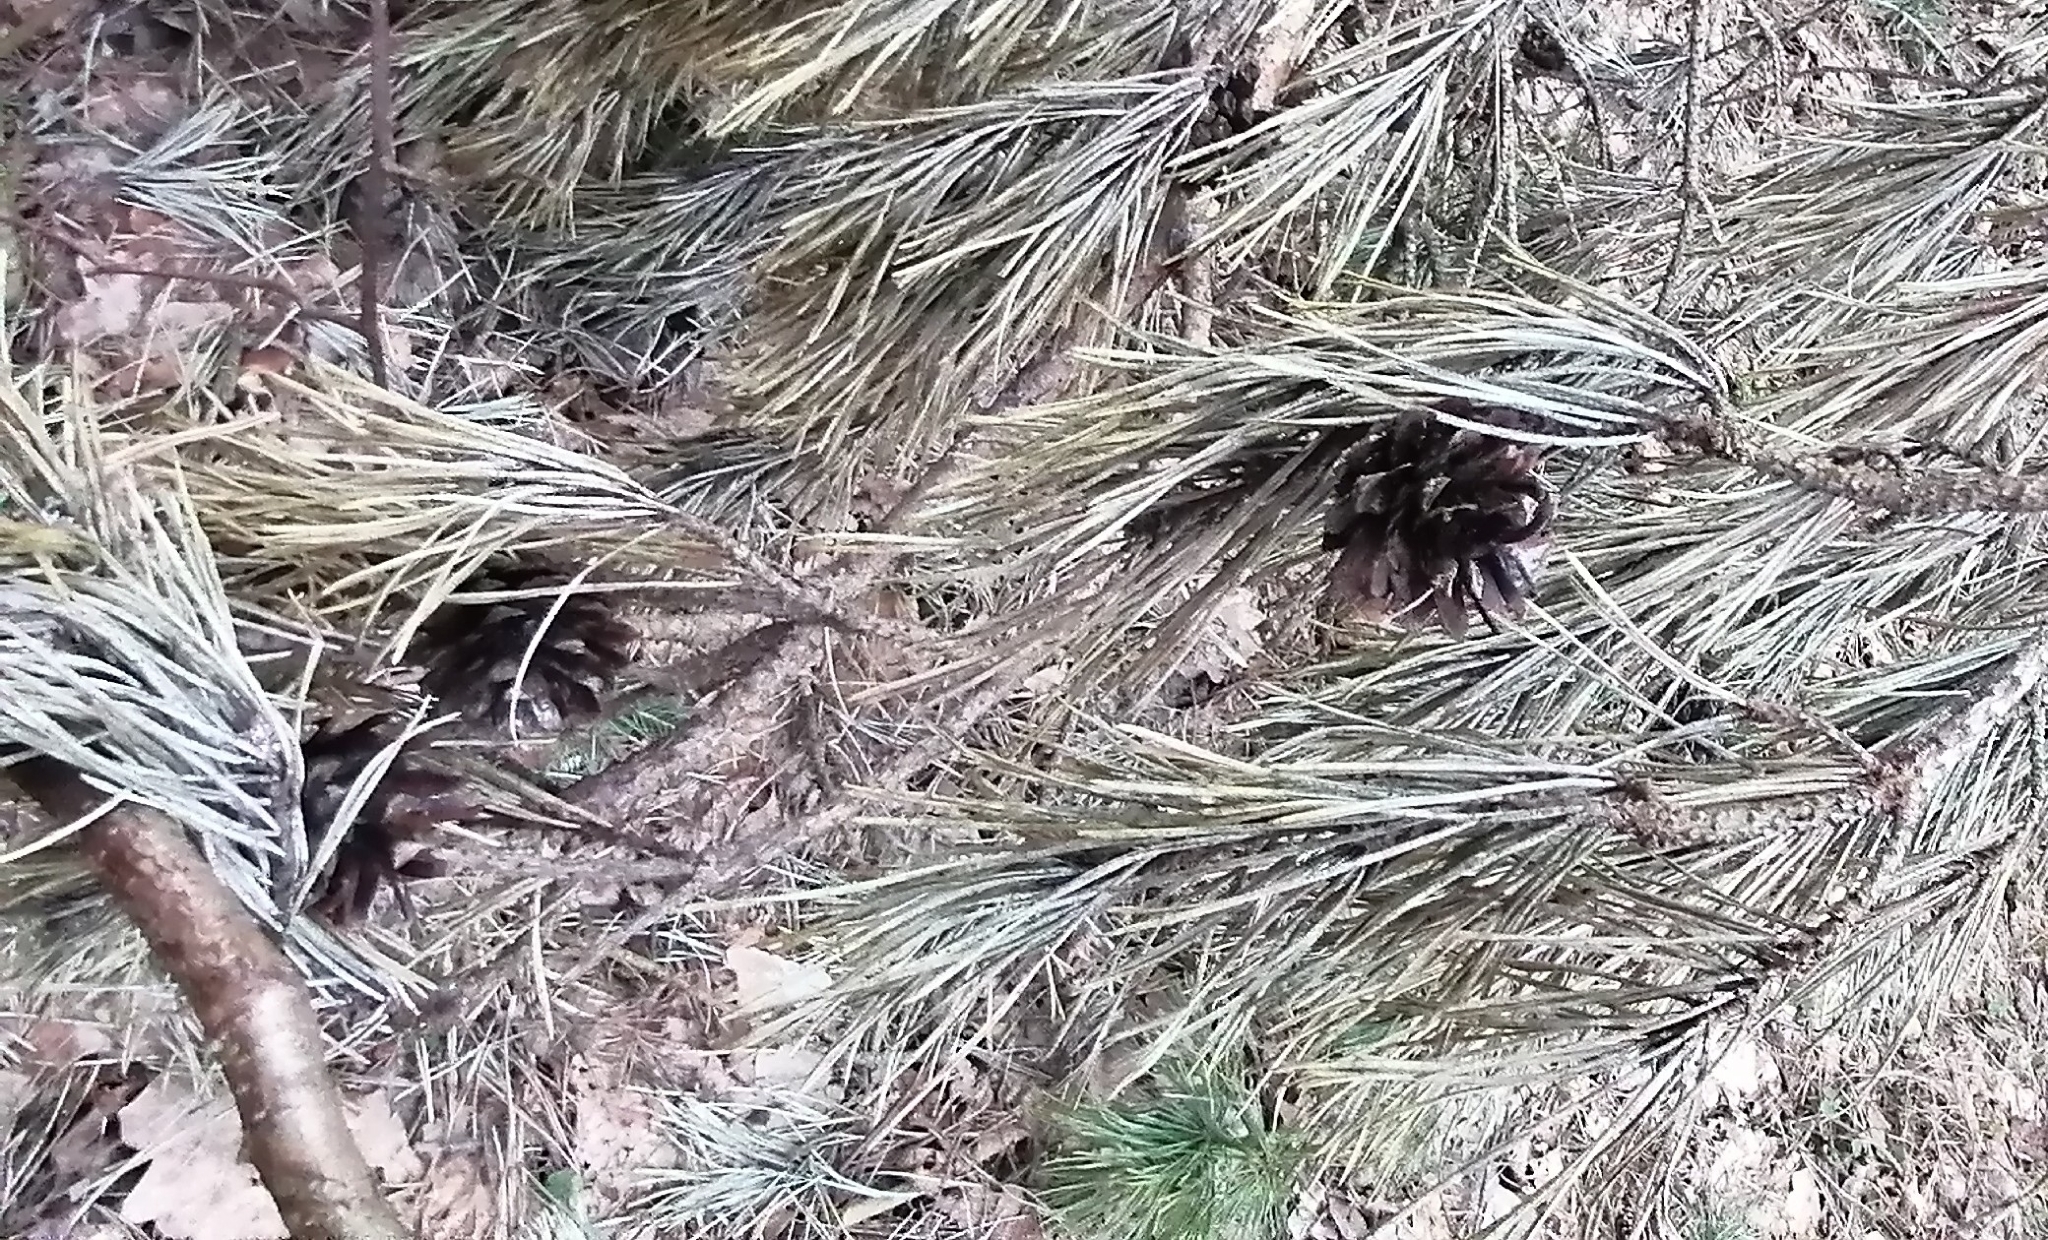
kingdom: Plantae
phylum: Tracheophyta
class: Pinopsida
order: Pinales
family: Pinaceae
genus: Pinus
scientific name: Pinus sylvestris
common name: Scots pine
